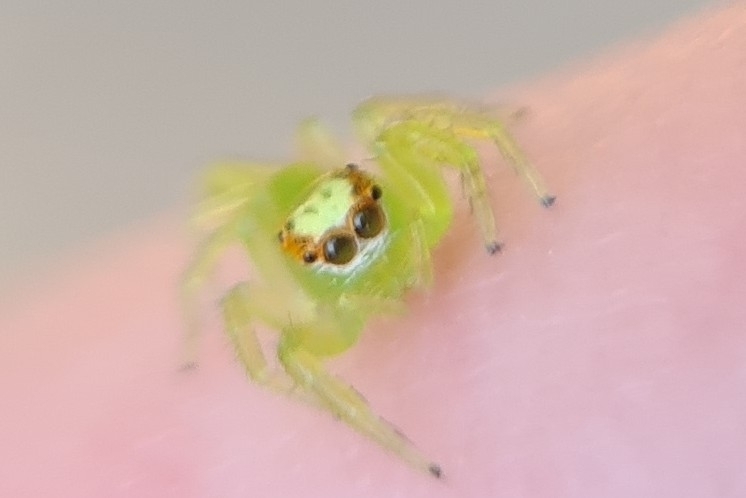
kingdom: Animalia
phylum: Arthropoda
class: Arachnida
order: Araneae
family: Salticidae
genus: Mopsus
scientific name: Mopsus mormon
